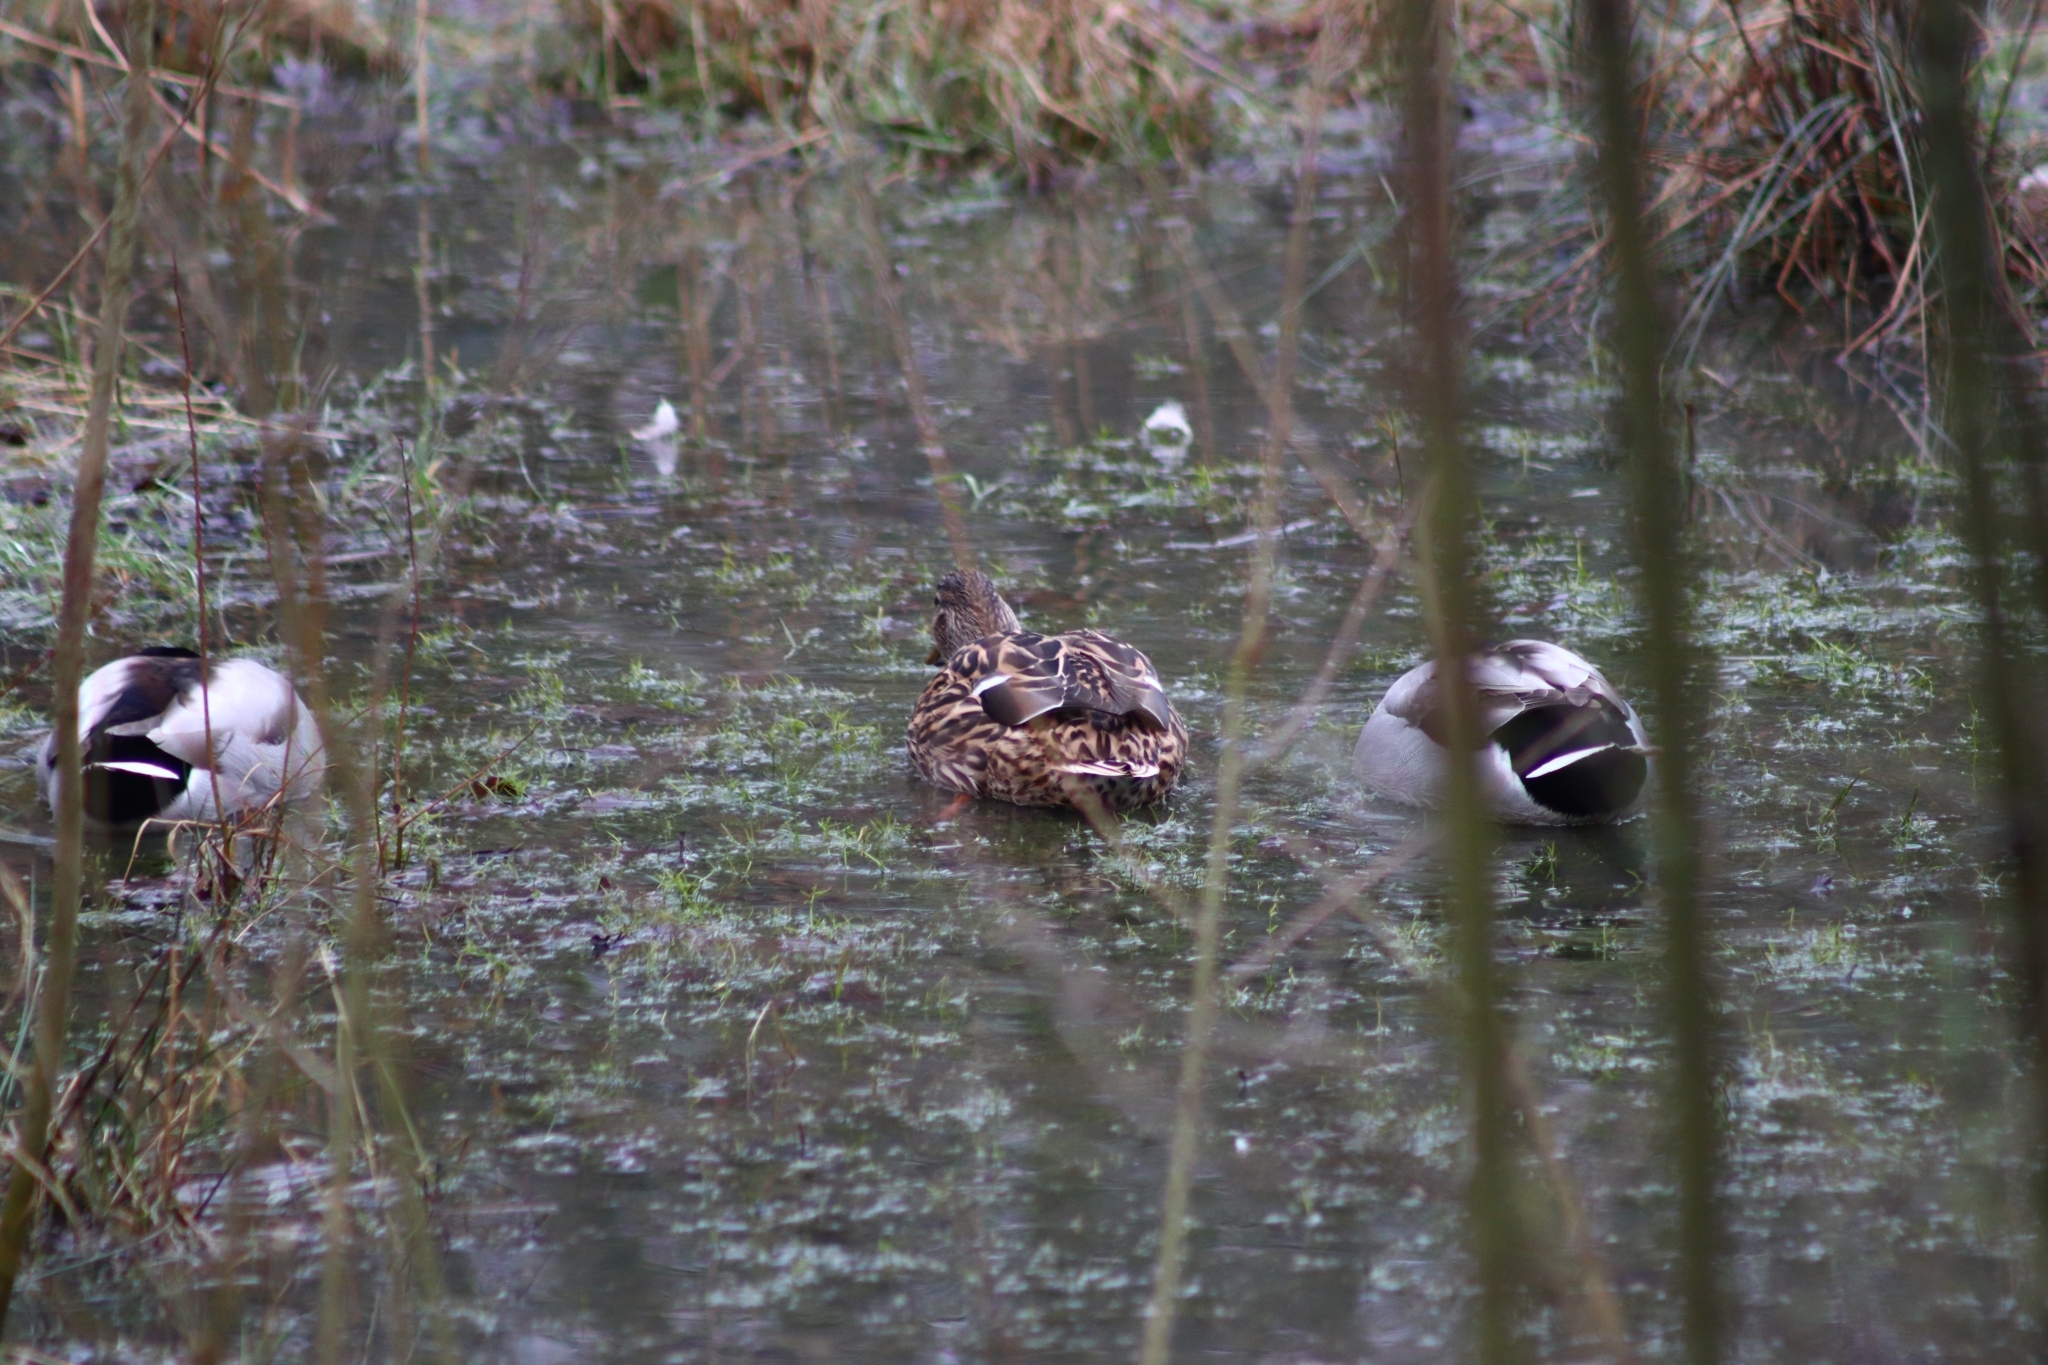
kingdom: Animalia
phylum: Chordata
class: Aves
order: Anseriformes
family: Anatidae
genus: Anas
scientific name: Anas platyrhynchos
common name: Mallard
